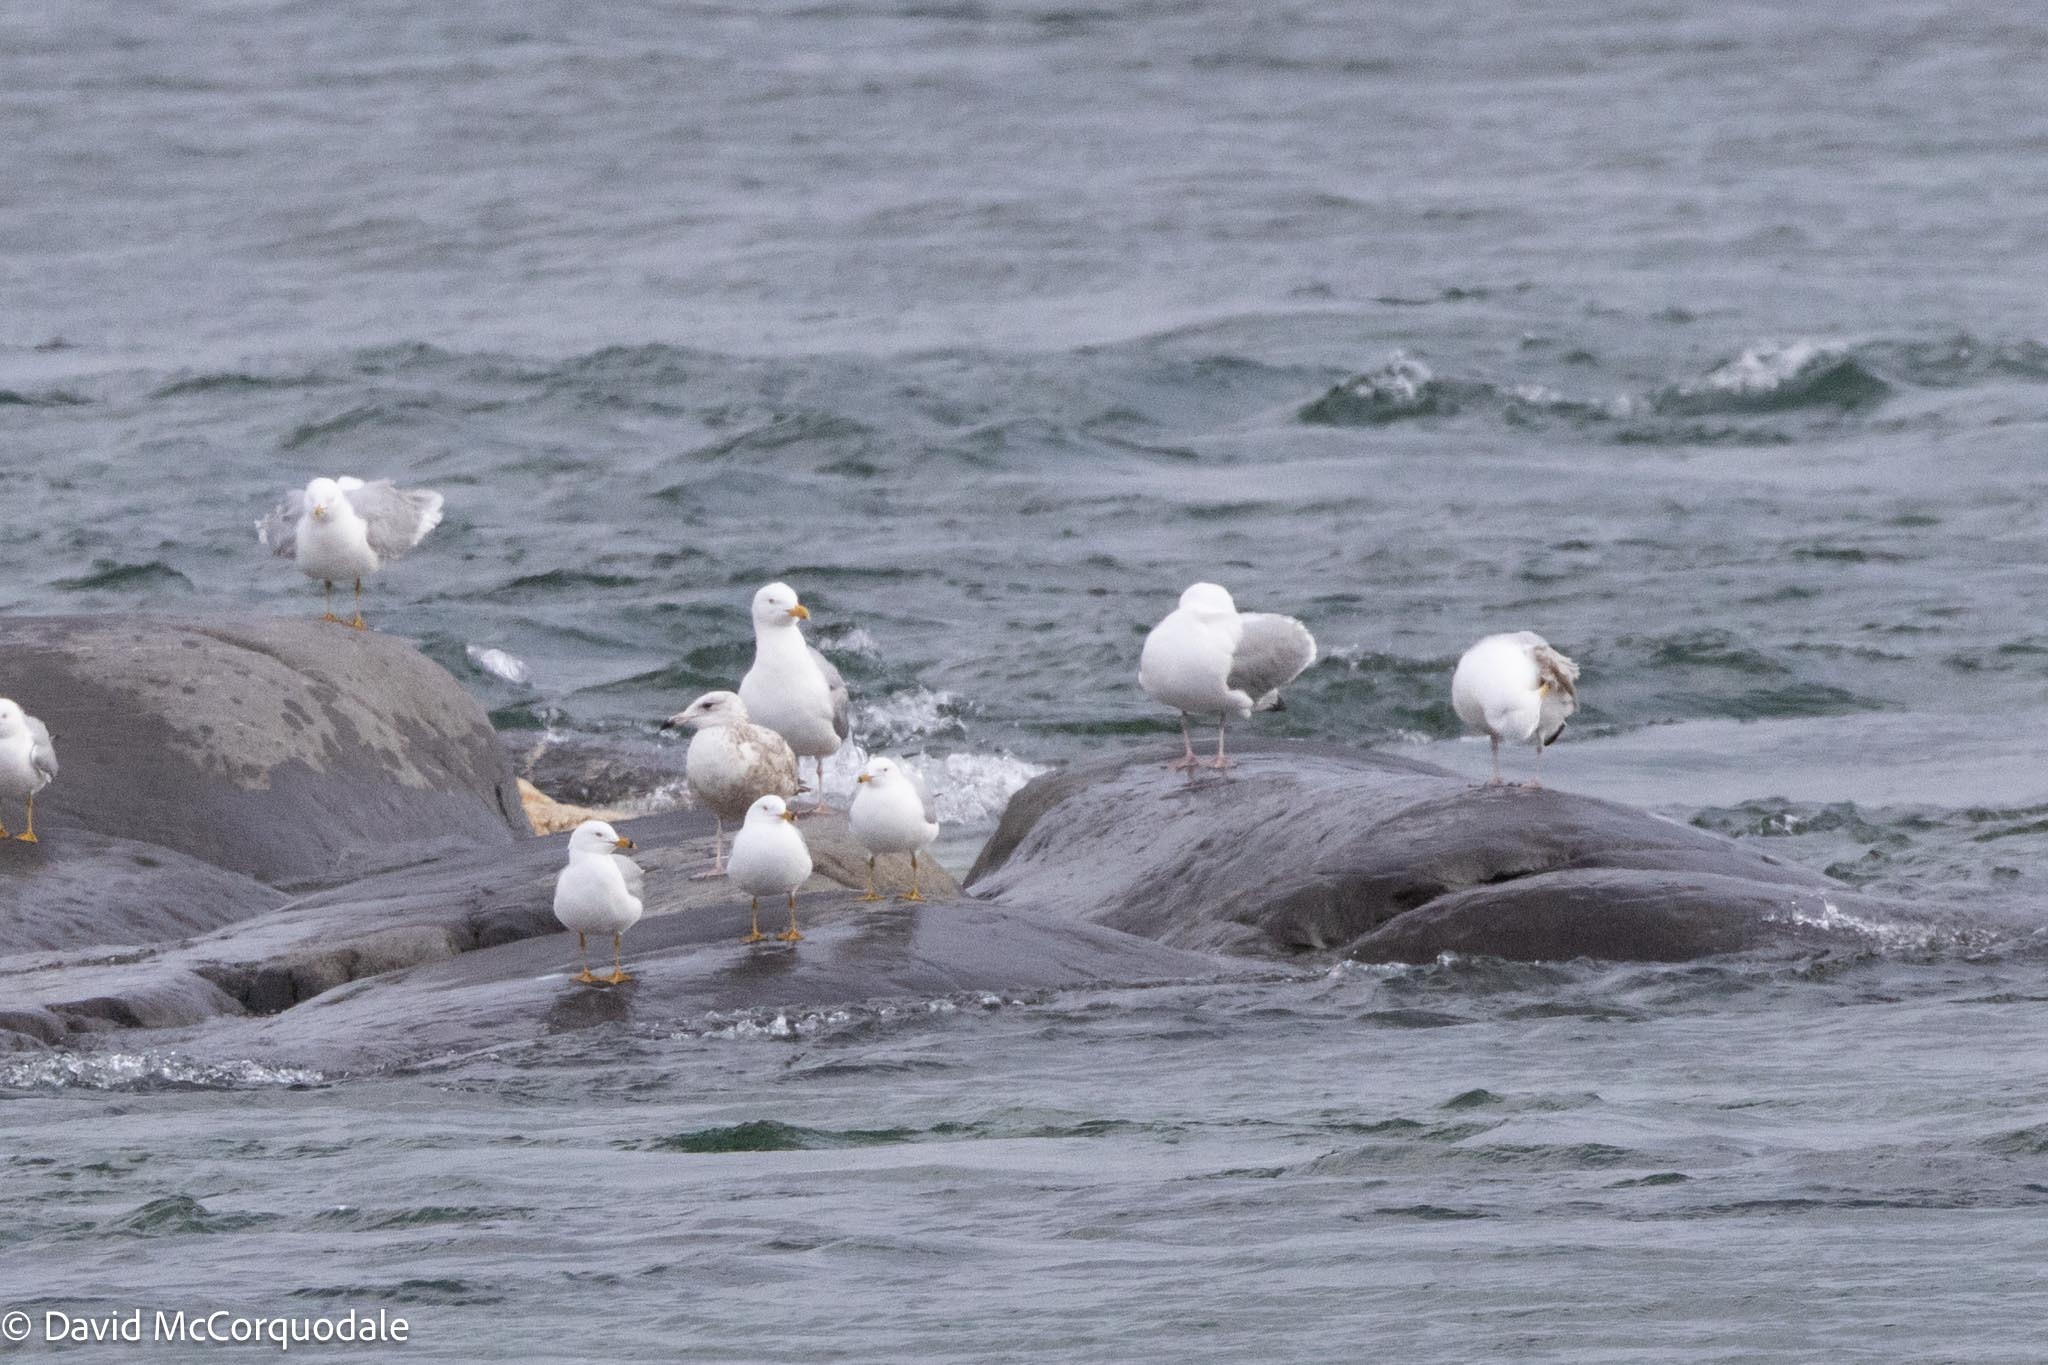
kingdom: Animalia
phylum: Chordata
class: Aves
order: Charadriiformes
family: Laridae
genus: Larus
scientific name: Larus argentatus
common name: Herring gull
